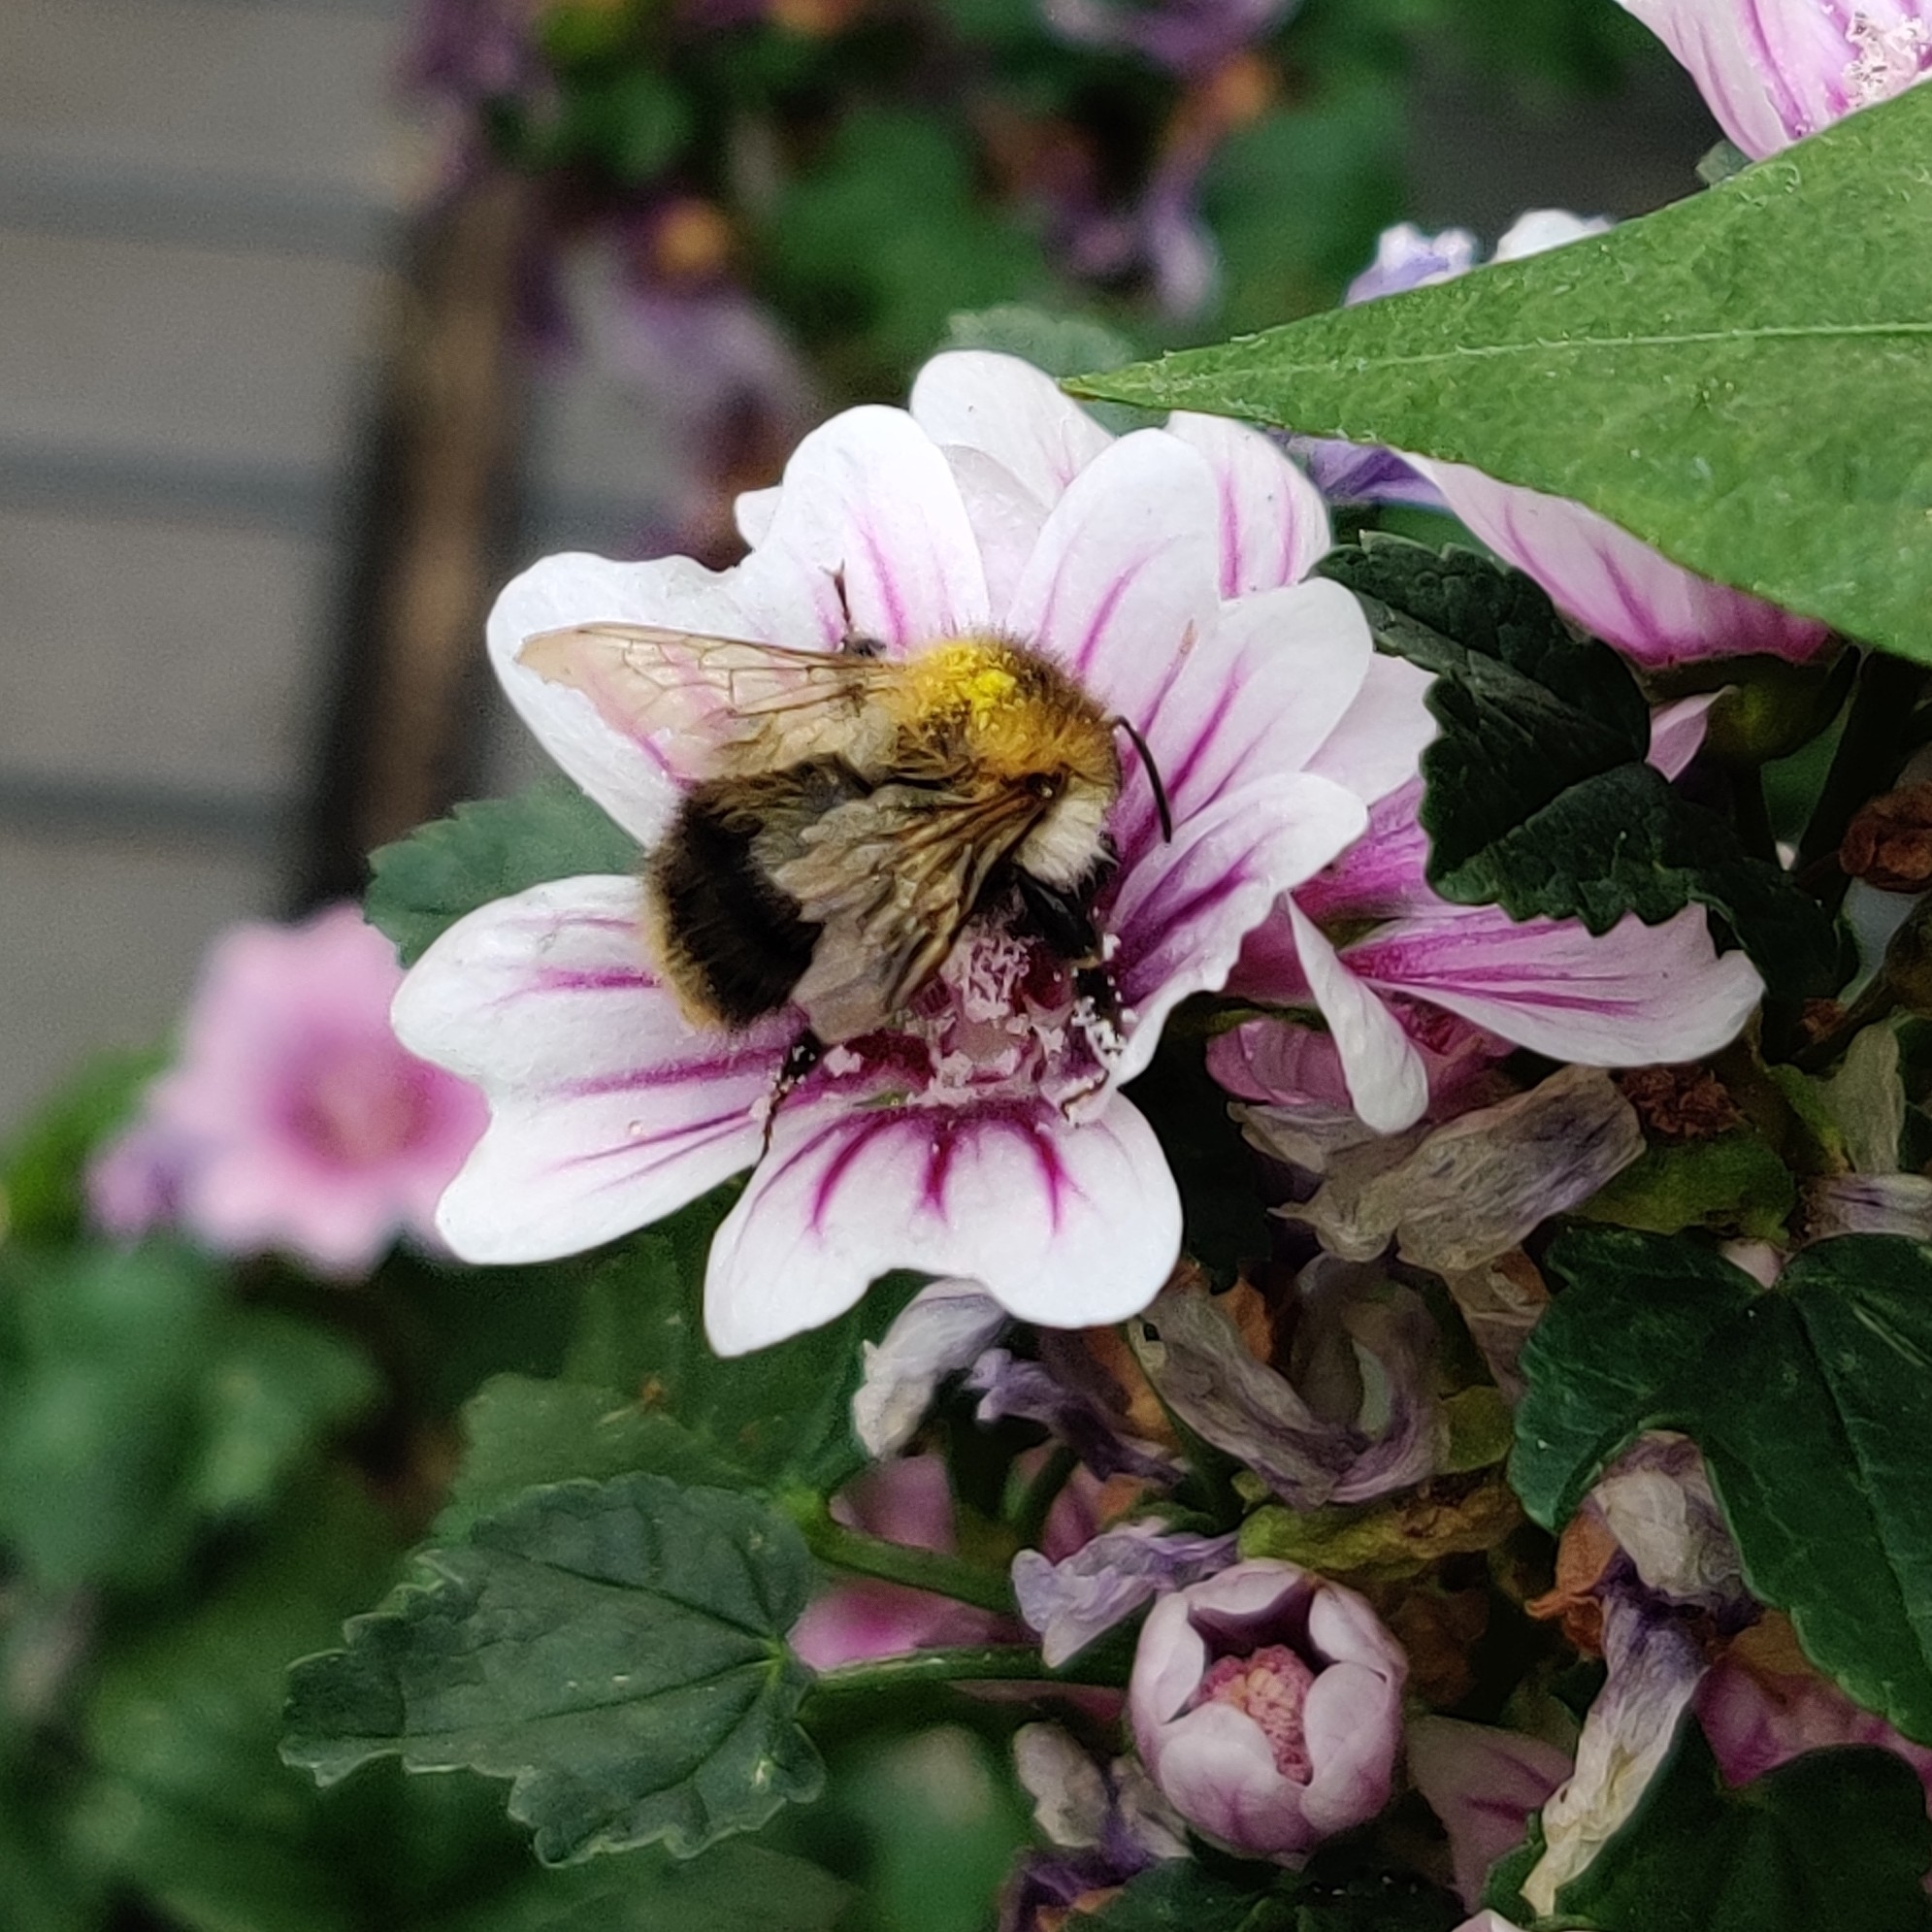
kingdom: Animalia
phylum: Arthropoda
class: Insecta
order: Hymenoptera
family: Apidae
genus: Bombus
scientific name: Bombus pascuorum
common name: Common carder bee
